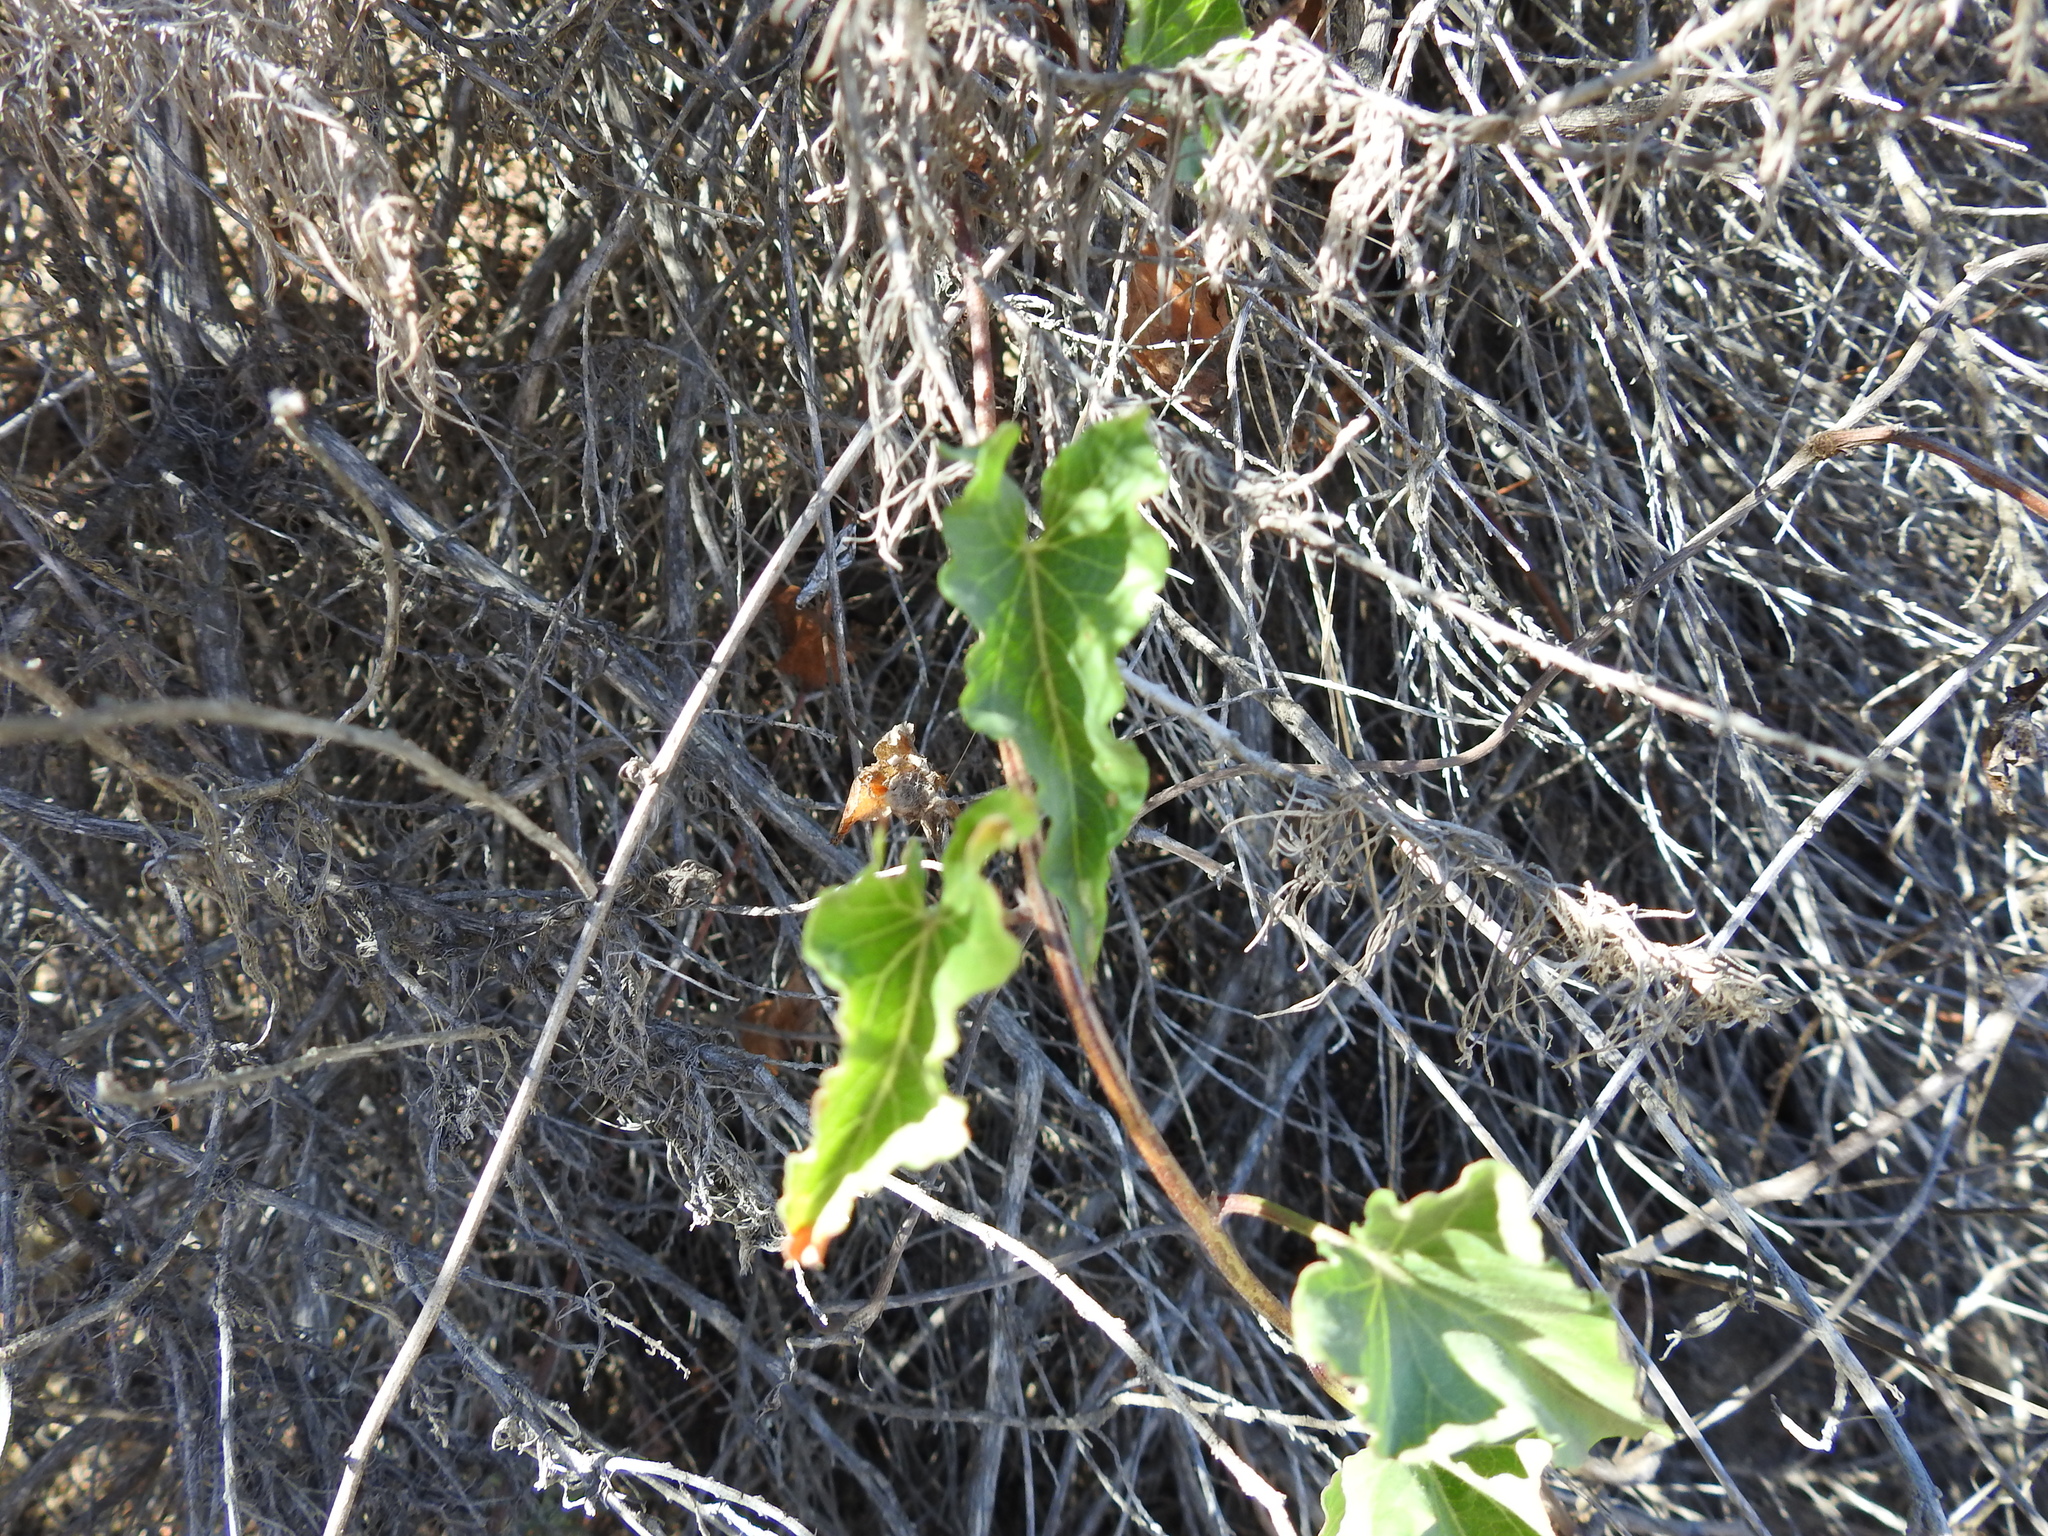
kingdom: Plantae
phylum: Tracheophyta
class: Magnoliopsida
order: Solanales
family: Convolvulaceae
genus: Calystegia
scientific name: Calystegia macrostegia
